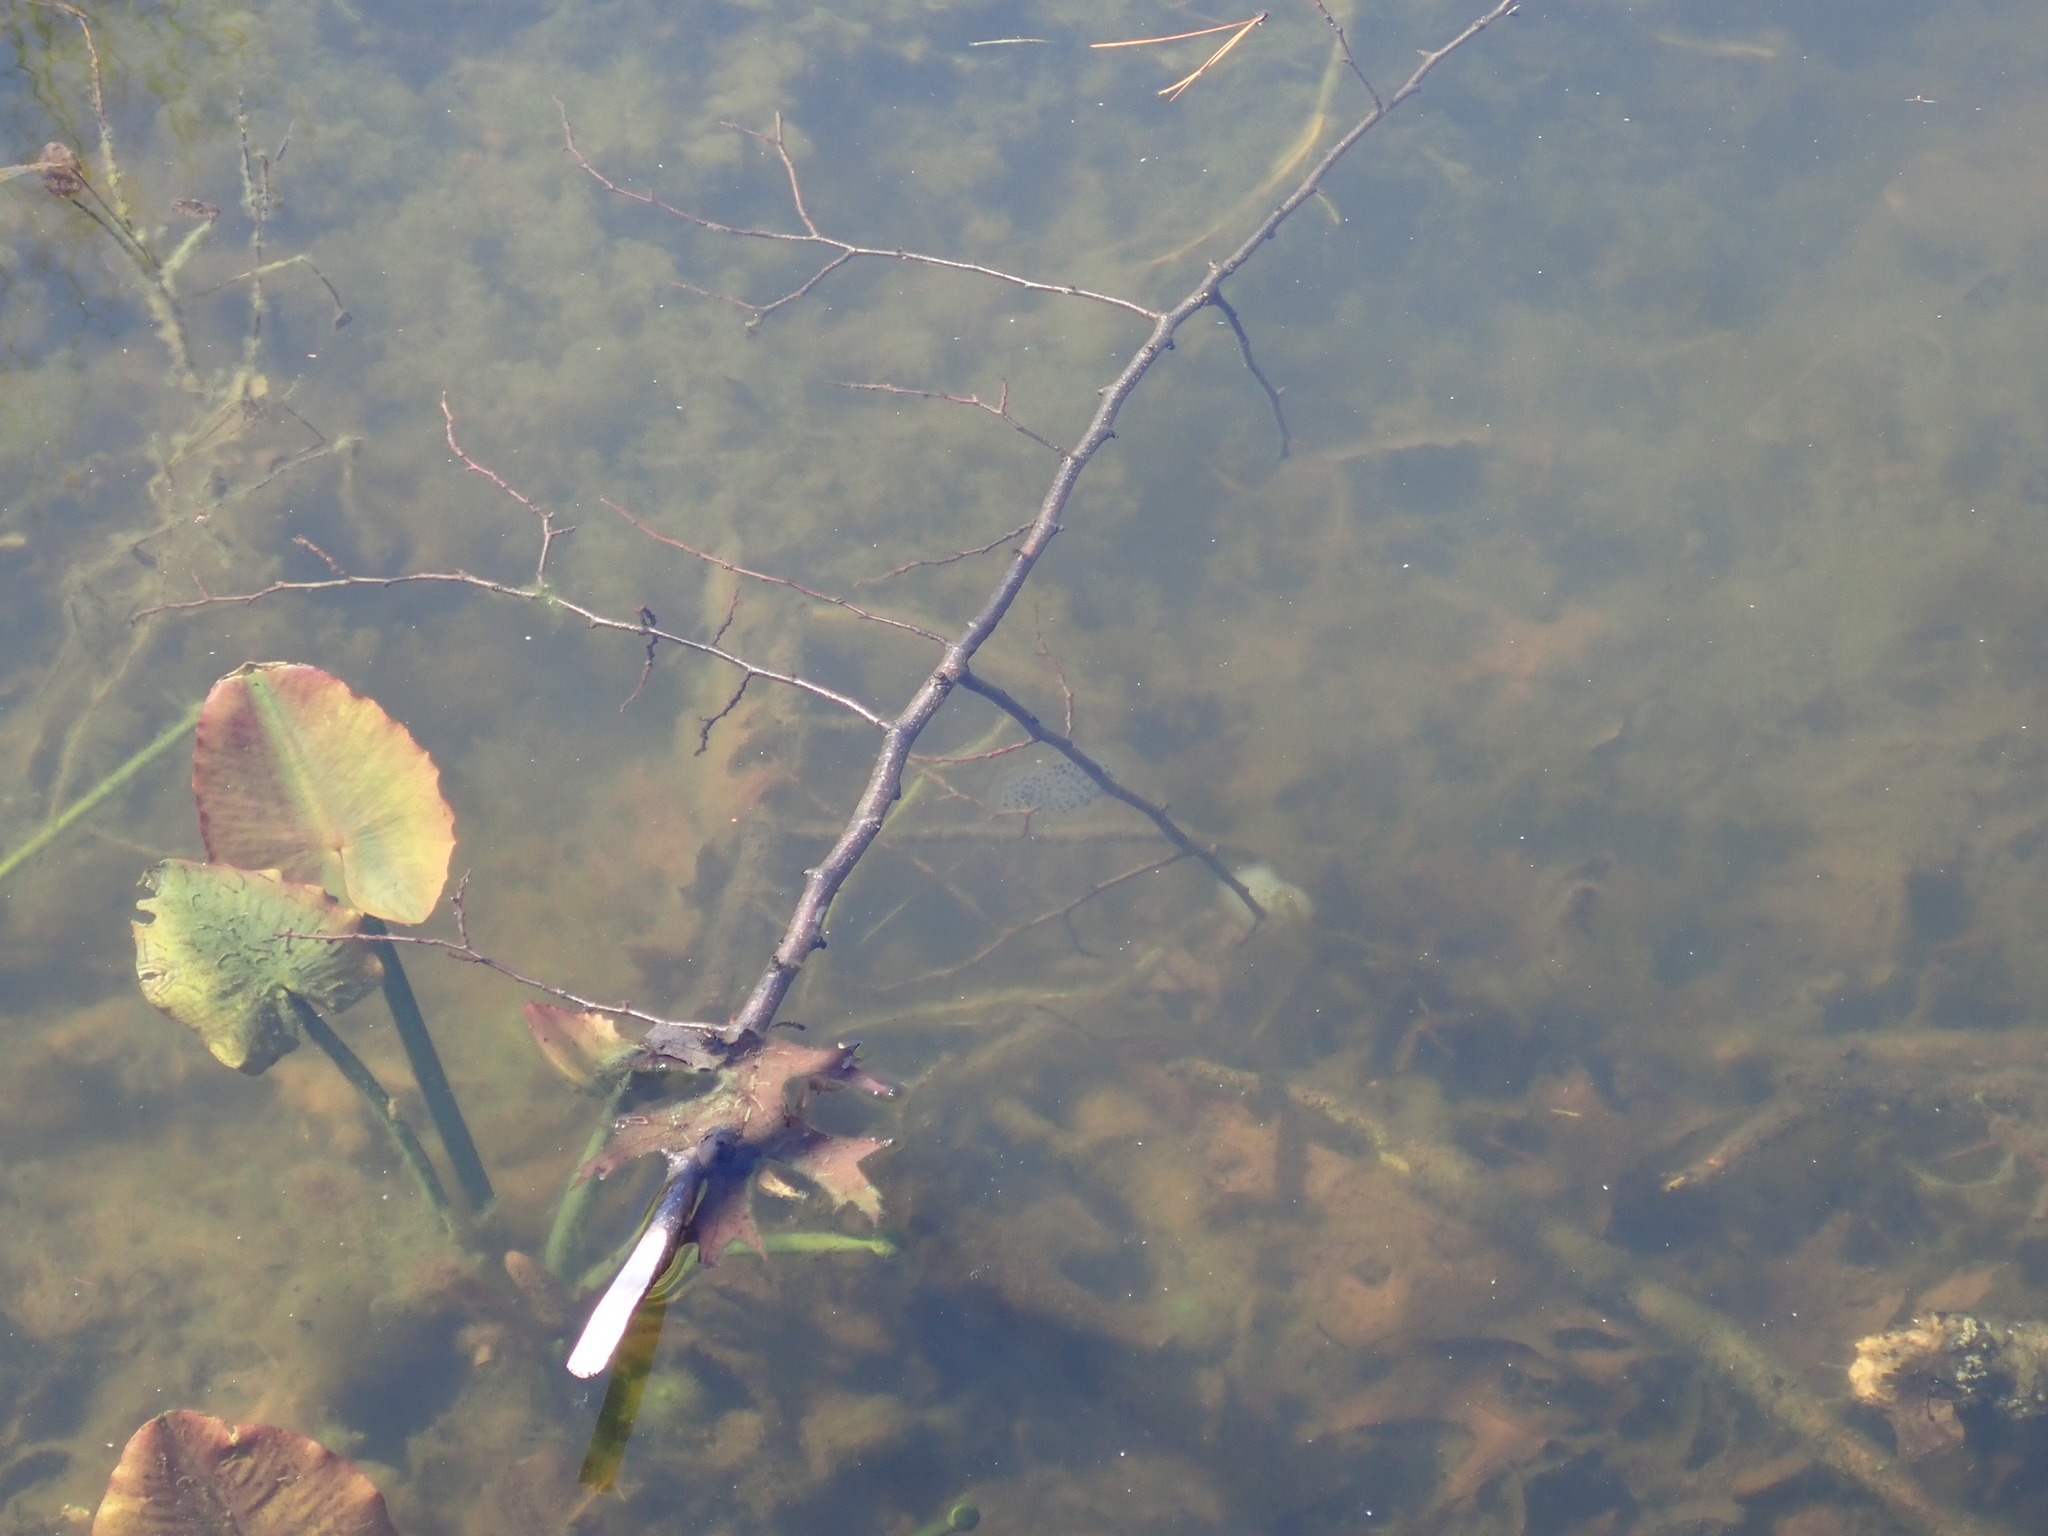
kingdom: Animalia
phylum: Chordata
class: Amphibia
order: Caudata
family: Ambystomatidae
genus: Ambystoma
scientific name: Ambystoma maculatum
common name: Spotted salamander
